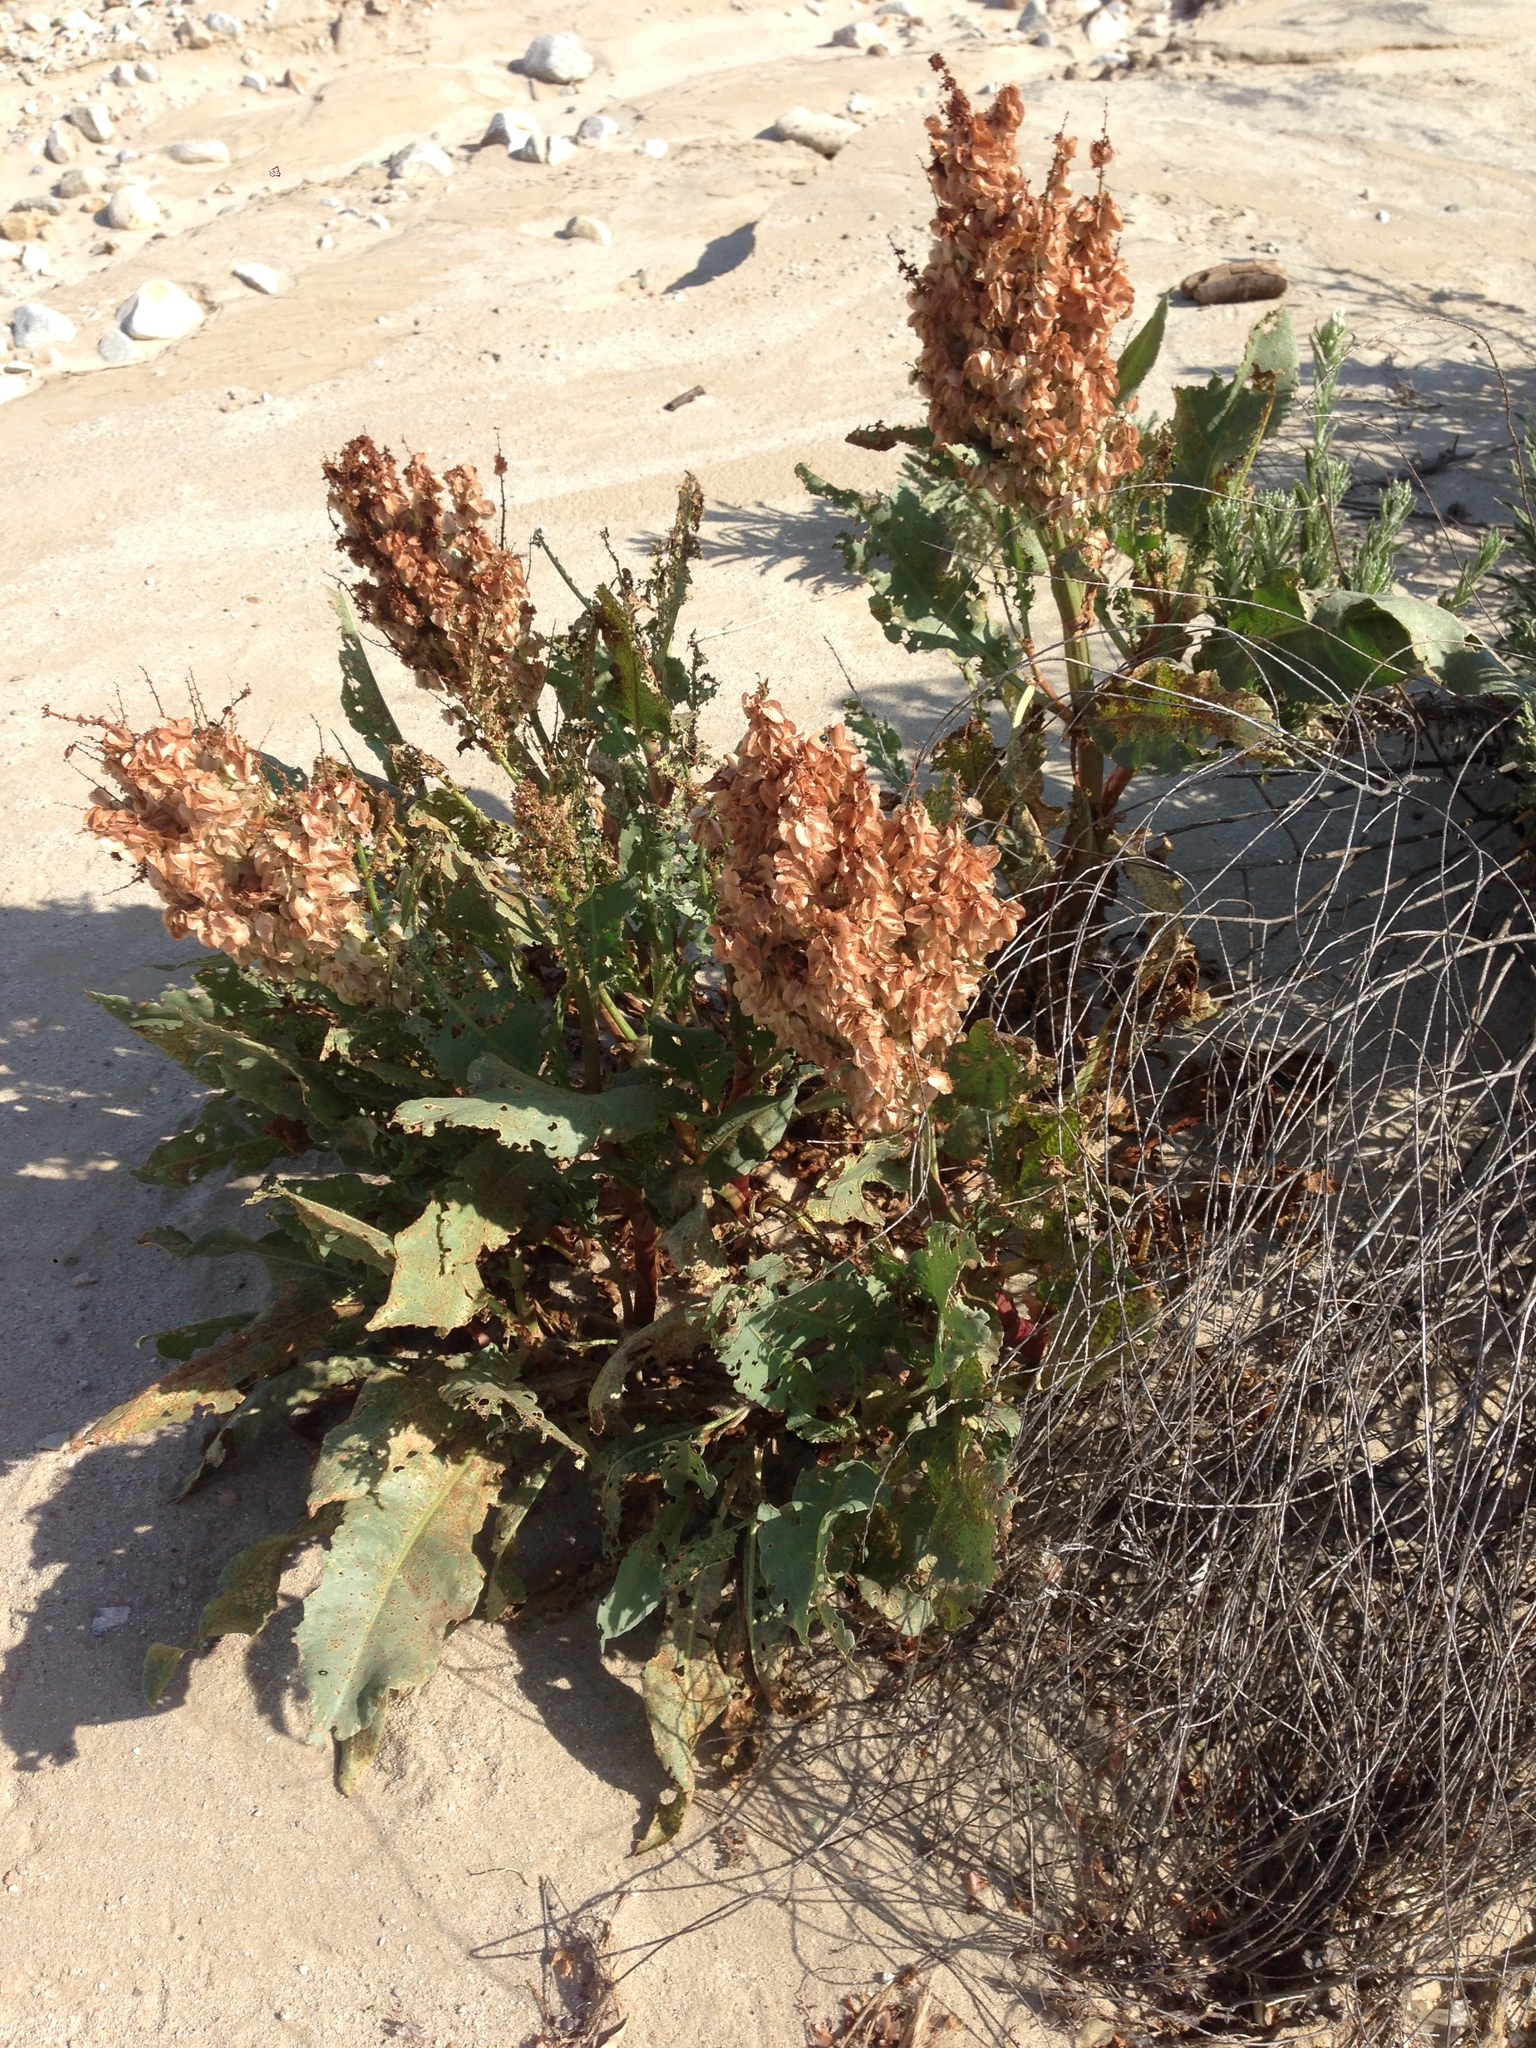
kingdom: Plantae
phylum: Tracheophyta
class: Magnoliopsida
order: Caryophyllales
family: Polygonaceae
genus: Rumex
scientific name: Rumex hymenosepalus
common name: Ganagra
